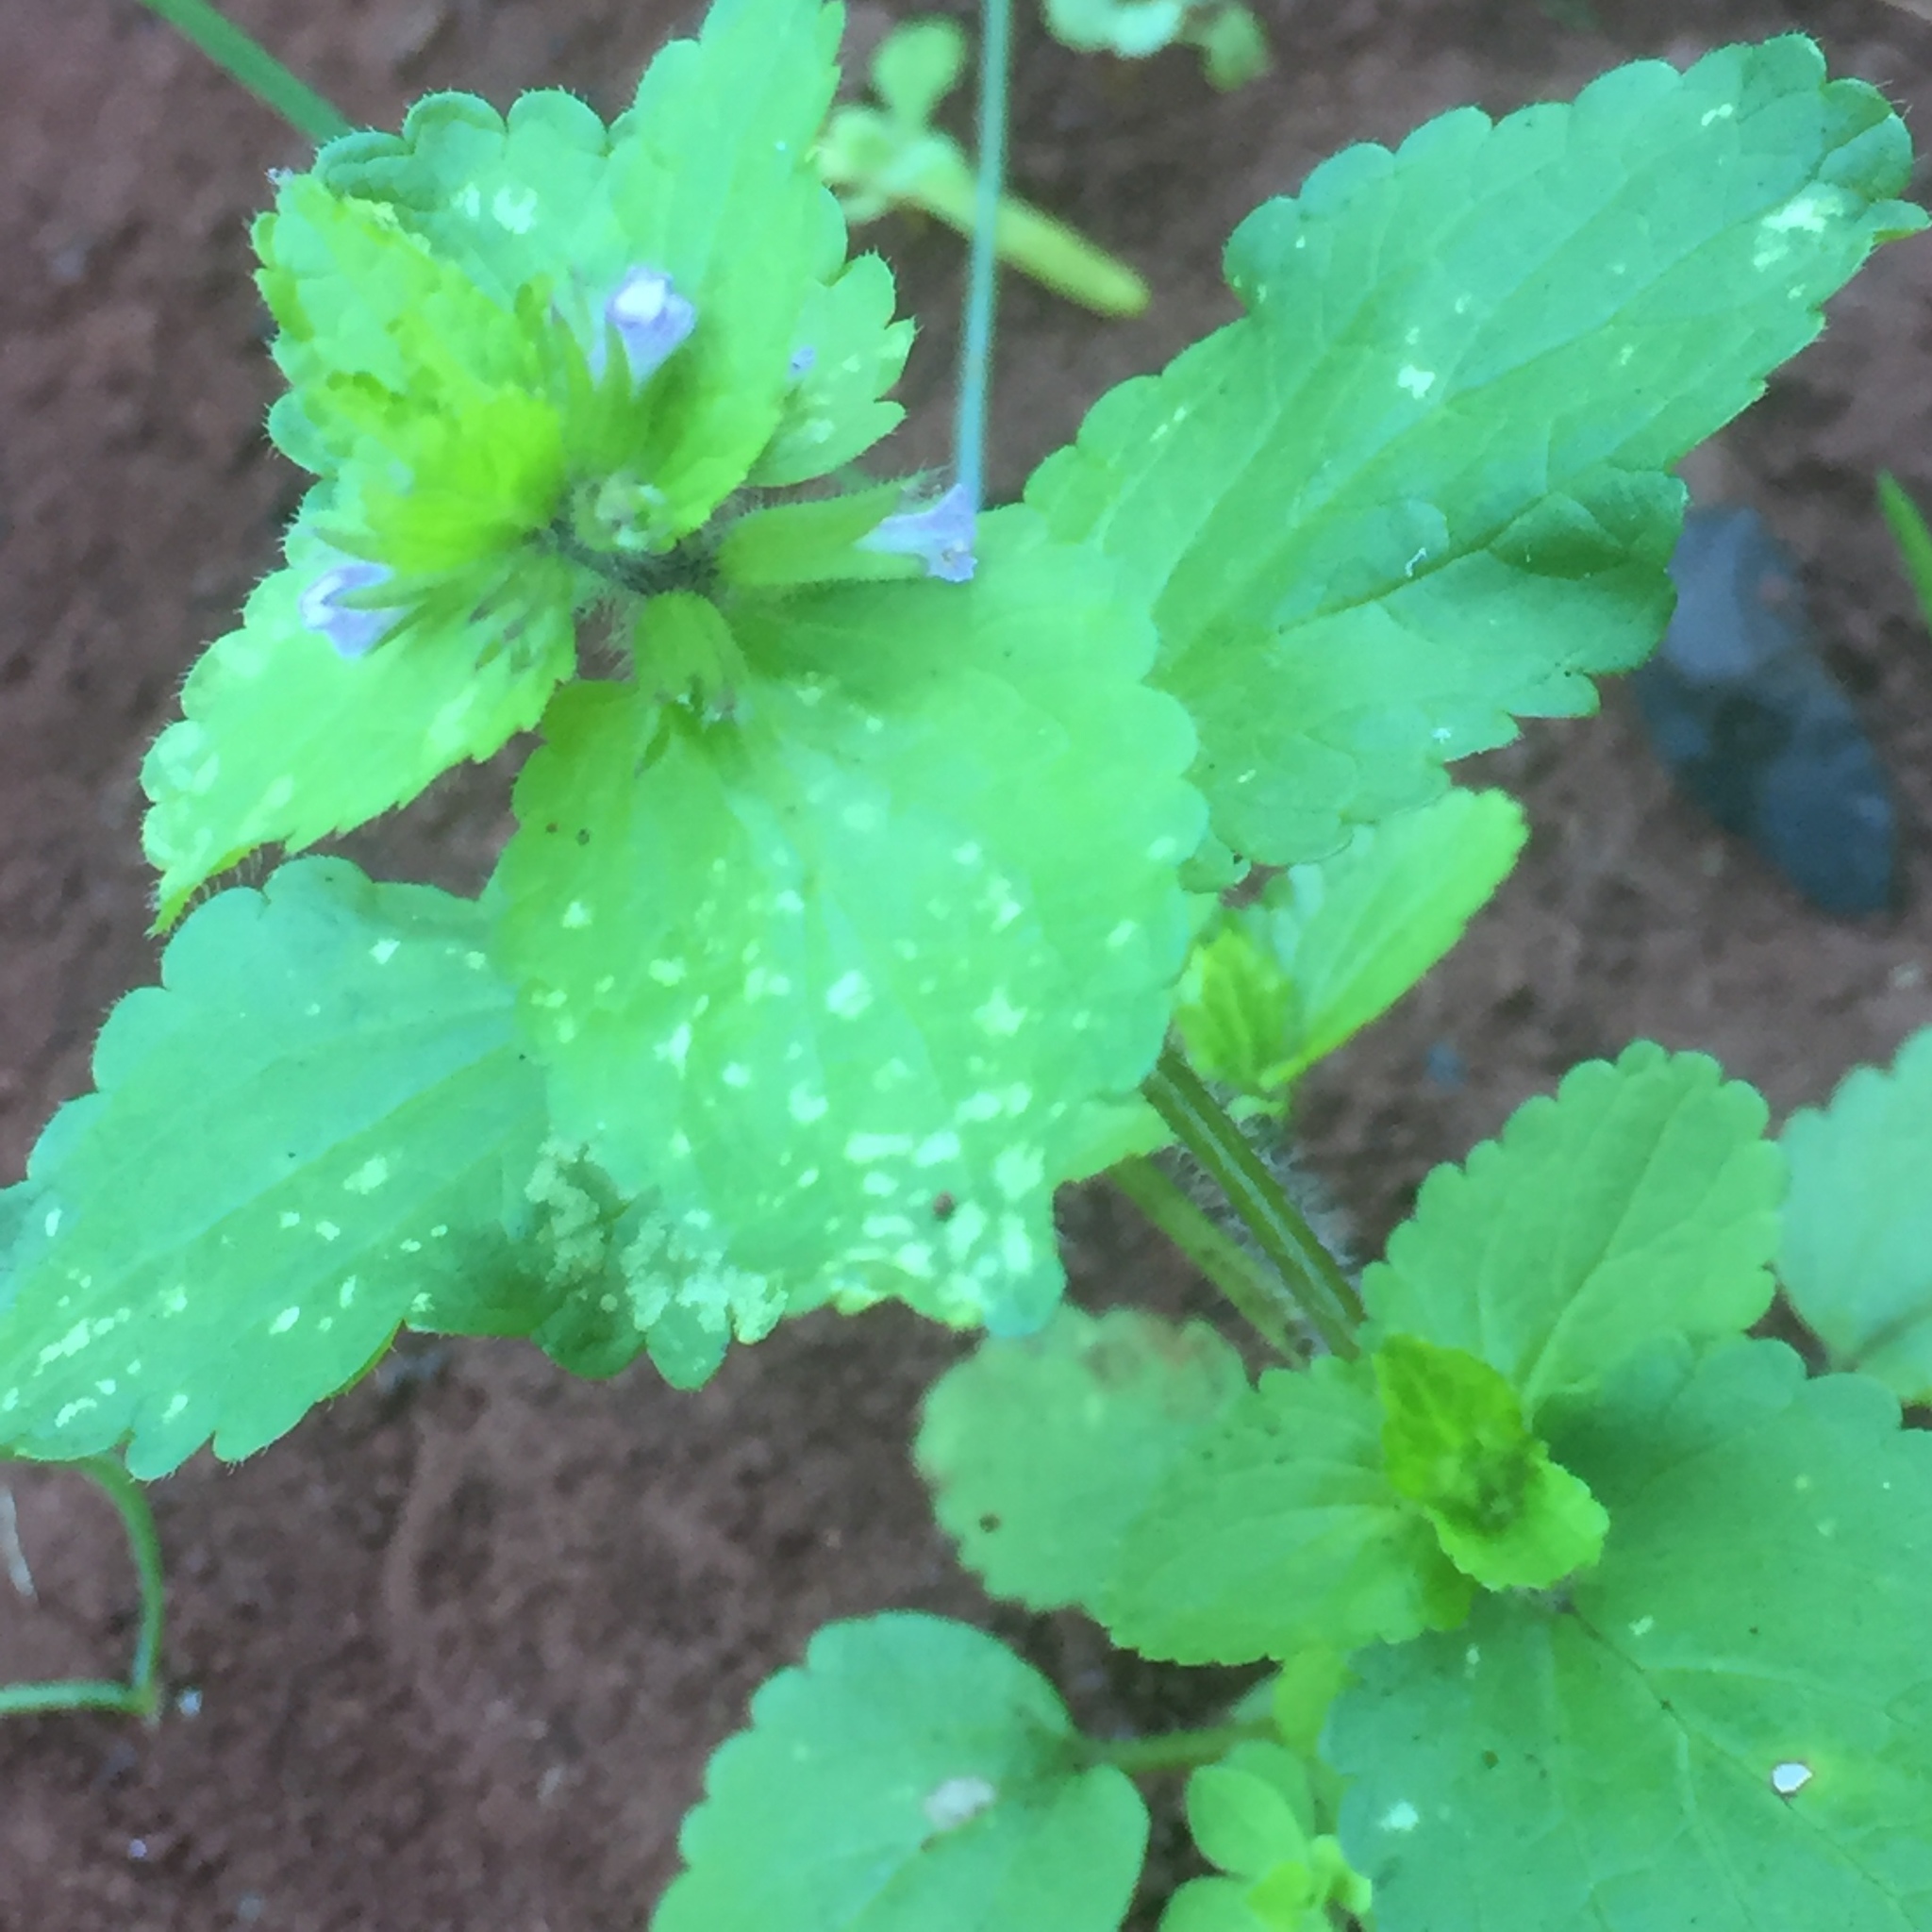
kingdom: Plantae
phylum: Tracheophyta
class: Magnoliopsida
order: Lamiales
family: Lamiaceae
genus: Stachys
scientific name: Stachys arvensis
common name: Field woundwort
